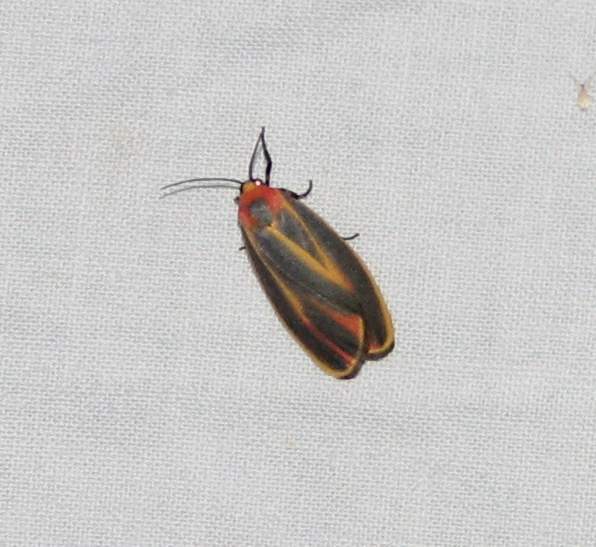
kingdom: Animalia
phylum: Arthropoda
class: Insecta
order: Lepidoptera
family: Erebidae
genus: Hypoprepia
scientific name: Hypoprepia fucosa
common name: Painted lichen moth
